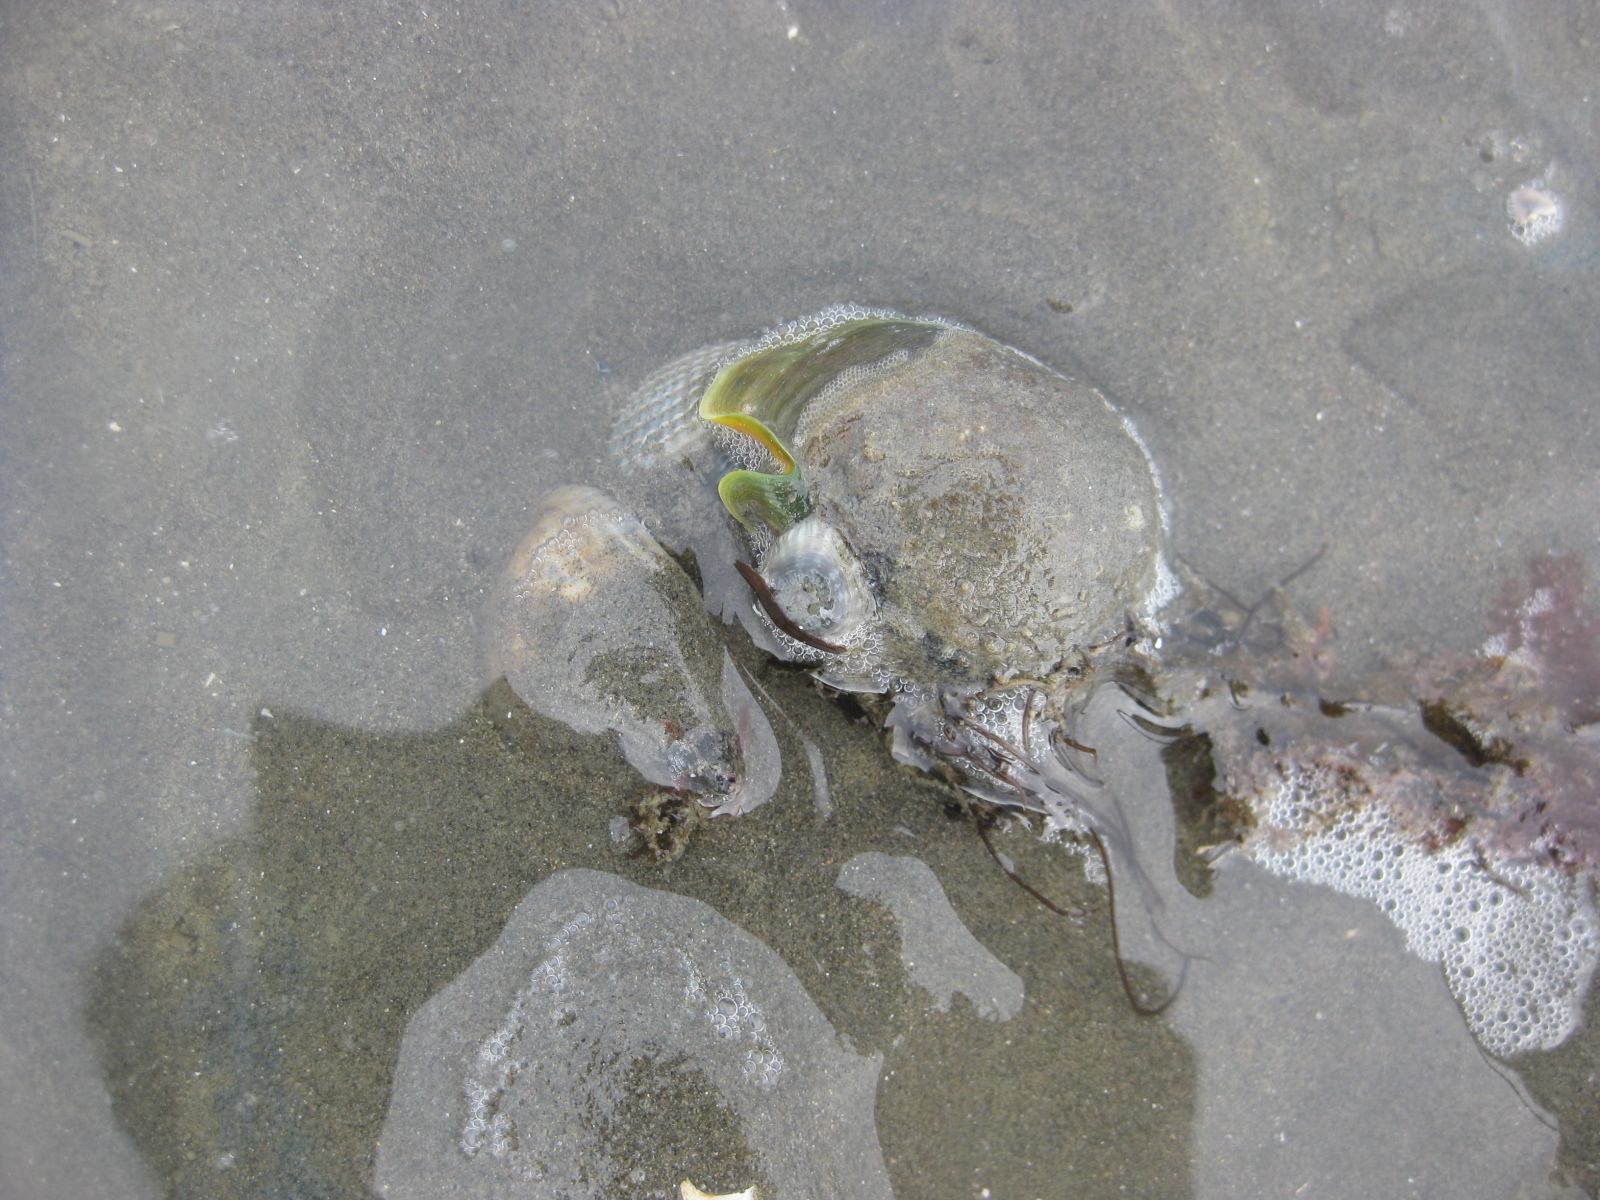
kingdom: Animalia
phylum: Mollusca
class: Gastropoda
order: Neogastropoda
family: Cominellidae
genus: Cominella
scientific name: Cominella adspersa
